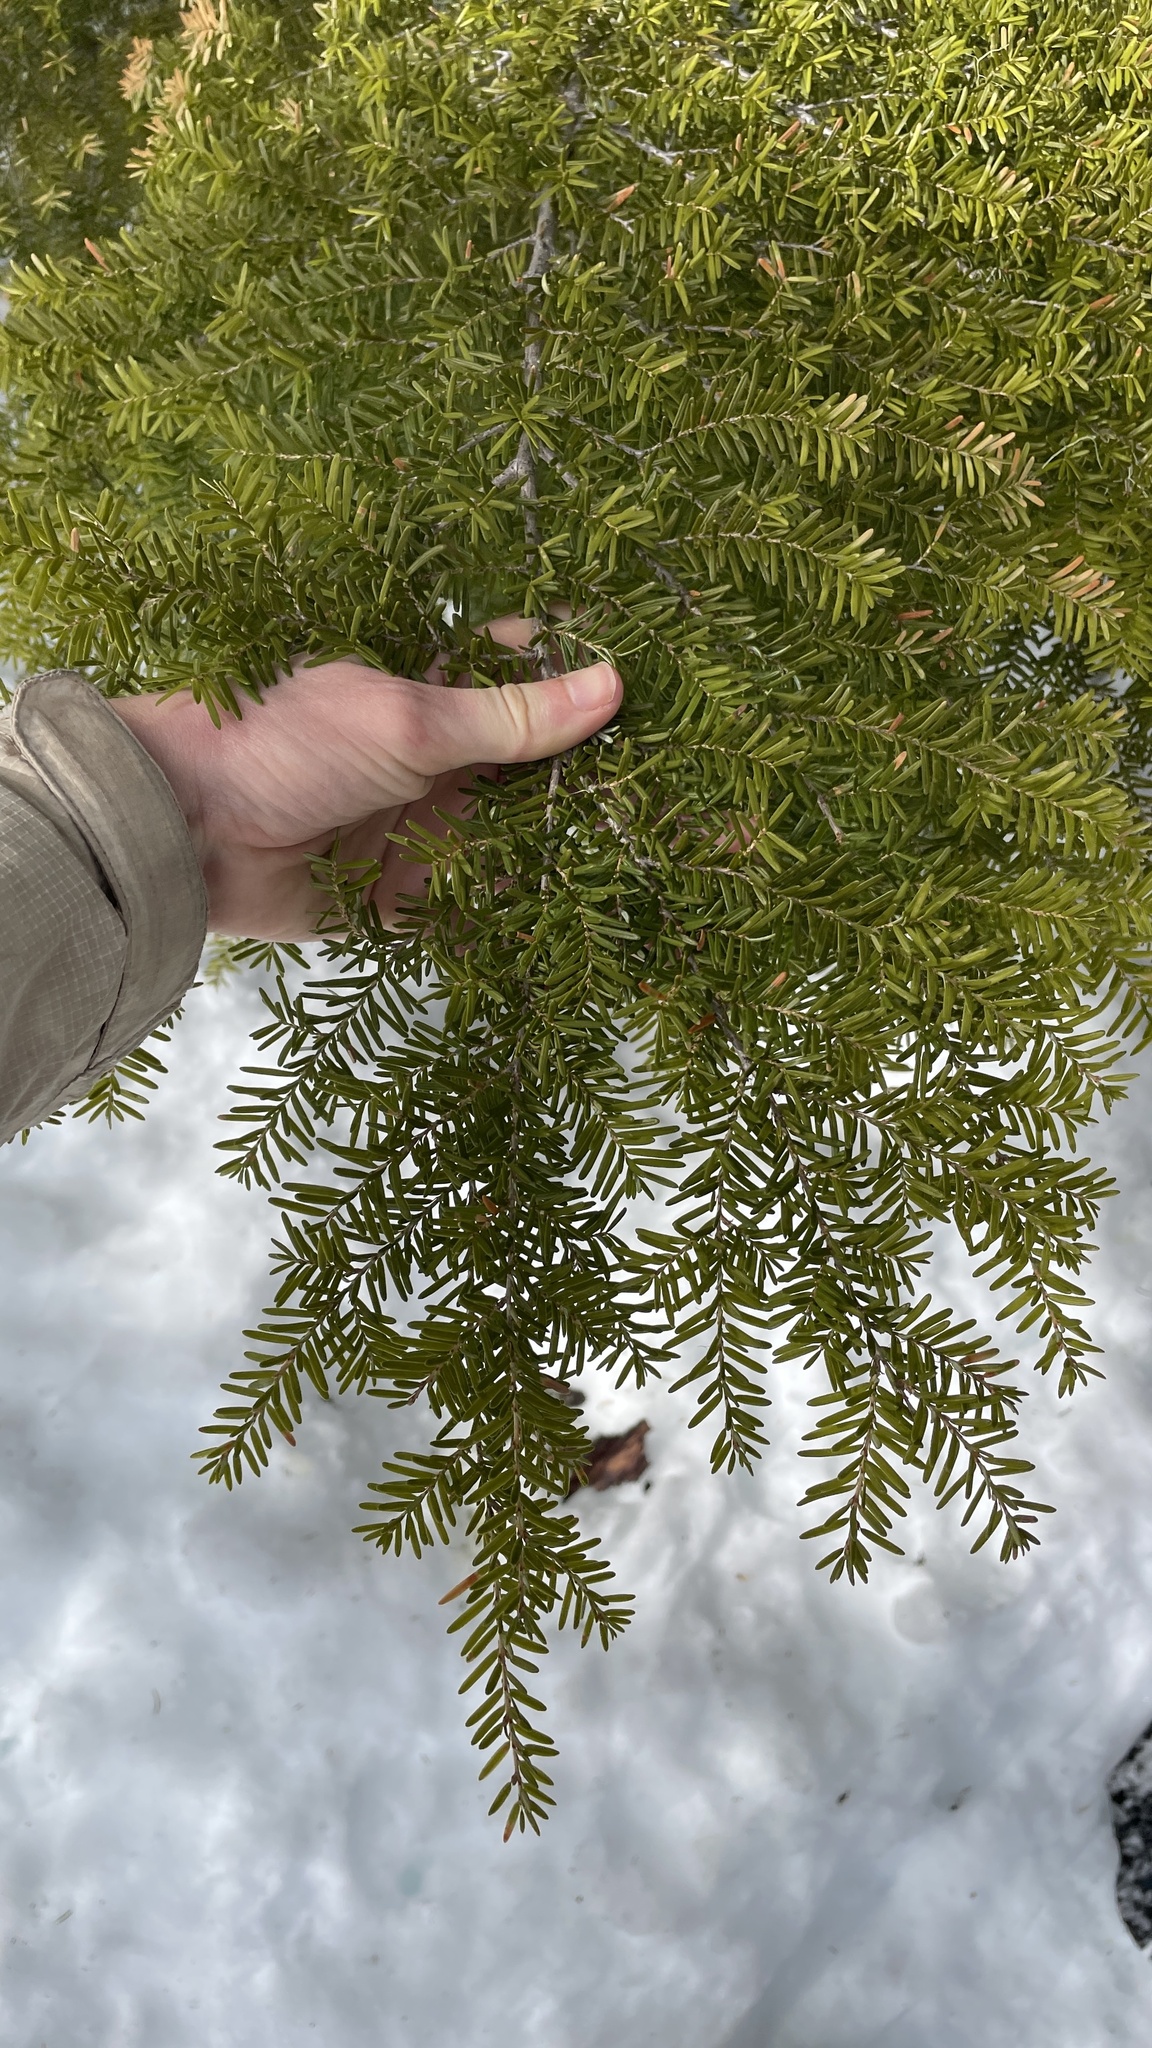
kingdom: Plantae
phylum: Tracheophyta
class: Pinopsida
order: Pinales
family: Pinaceae
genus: Tsuga
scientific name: Tsuga heterophylla
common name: Western hemlock
